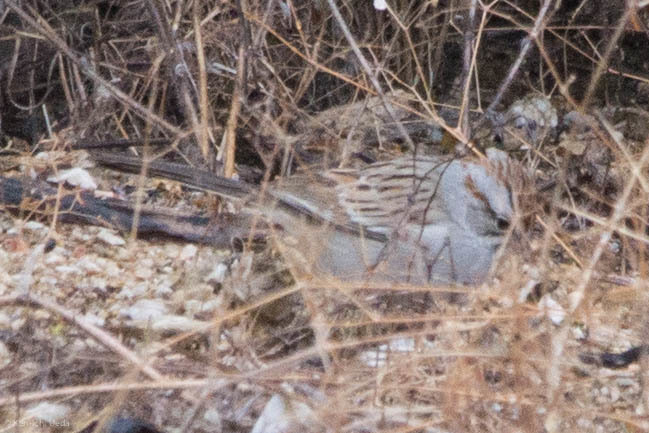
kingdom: Animalia
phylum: Chordata
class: Aves
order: Passeriformes
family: Passerellidae
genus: Peucaea
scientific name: Peucaea carpalis
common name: Rufous-winged sparrow
